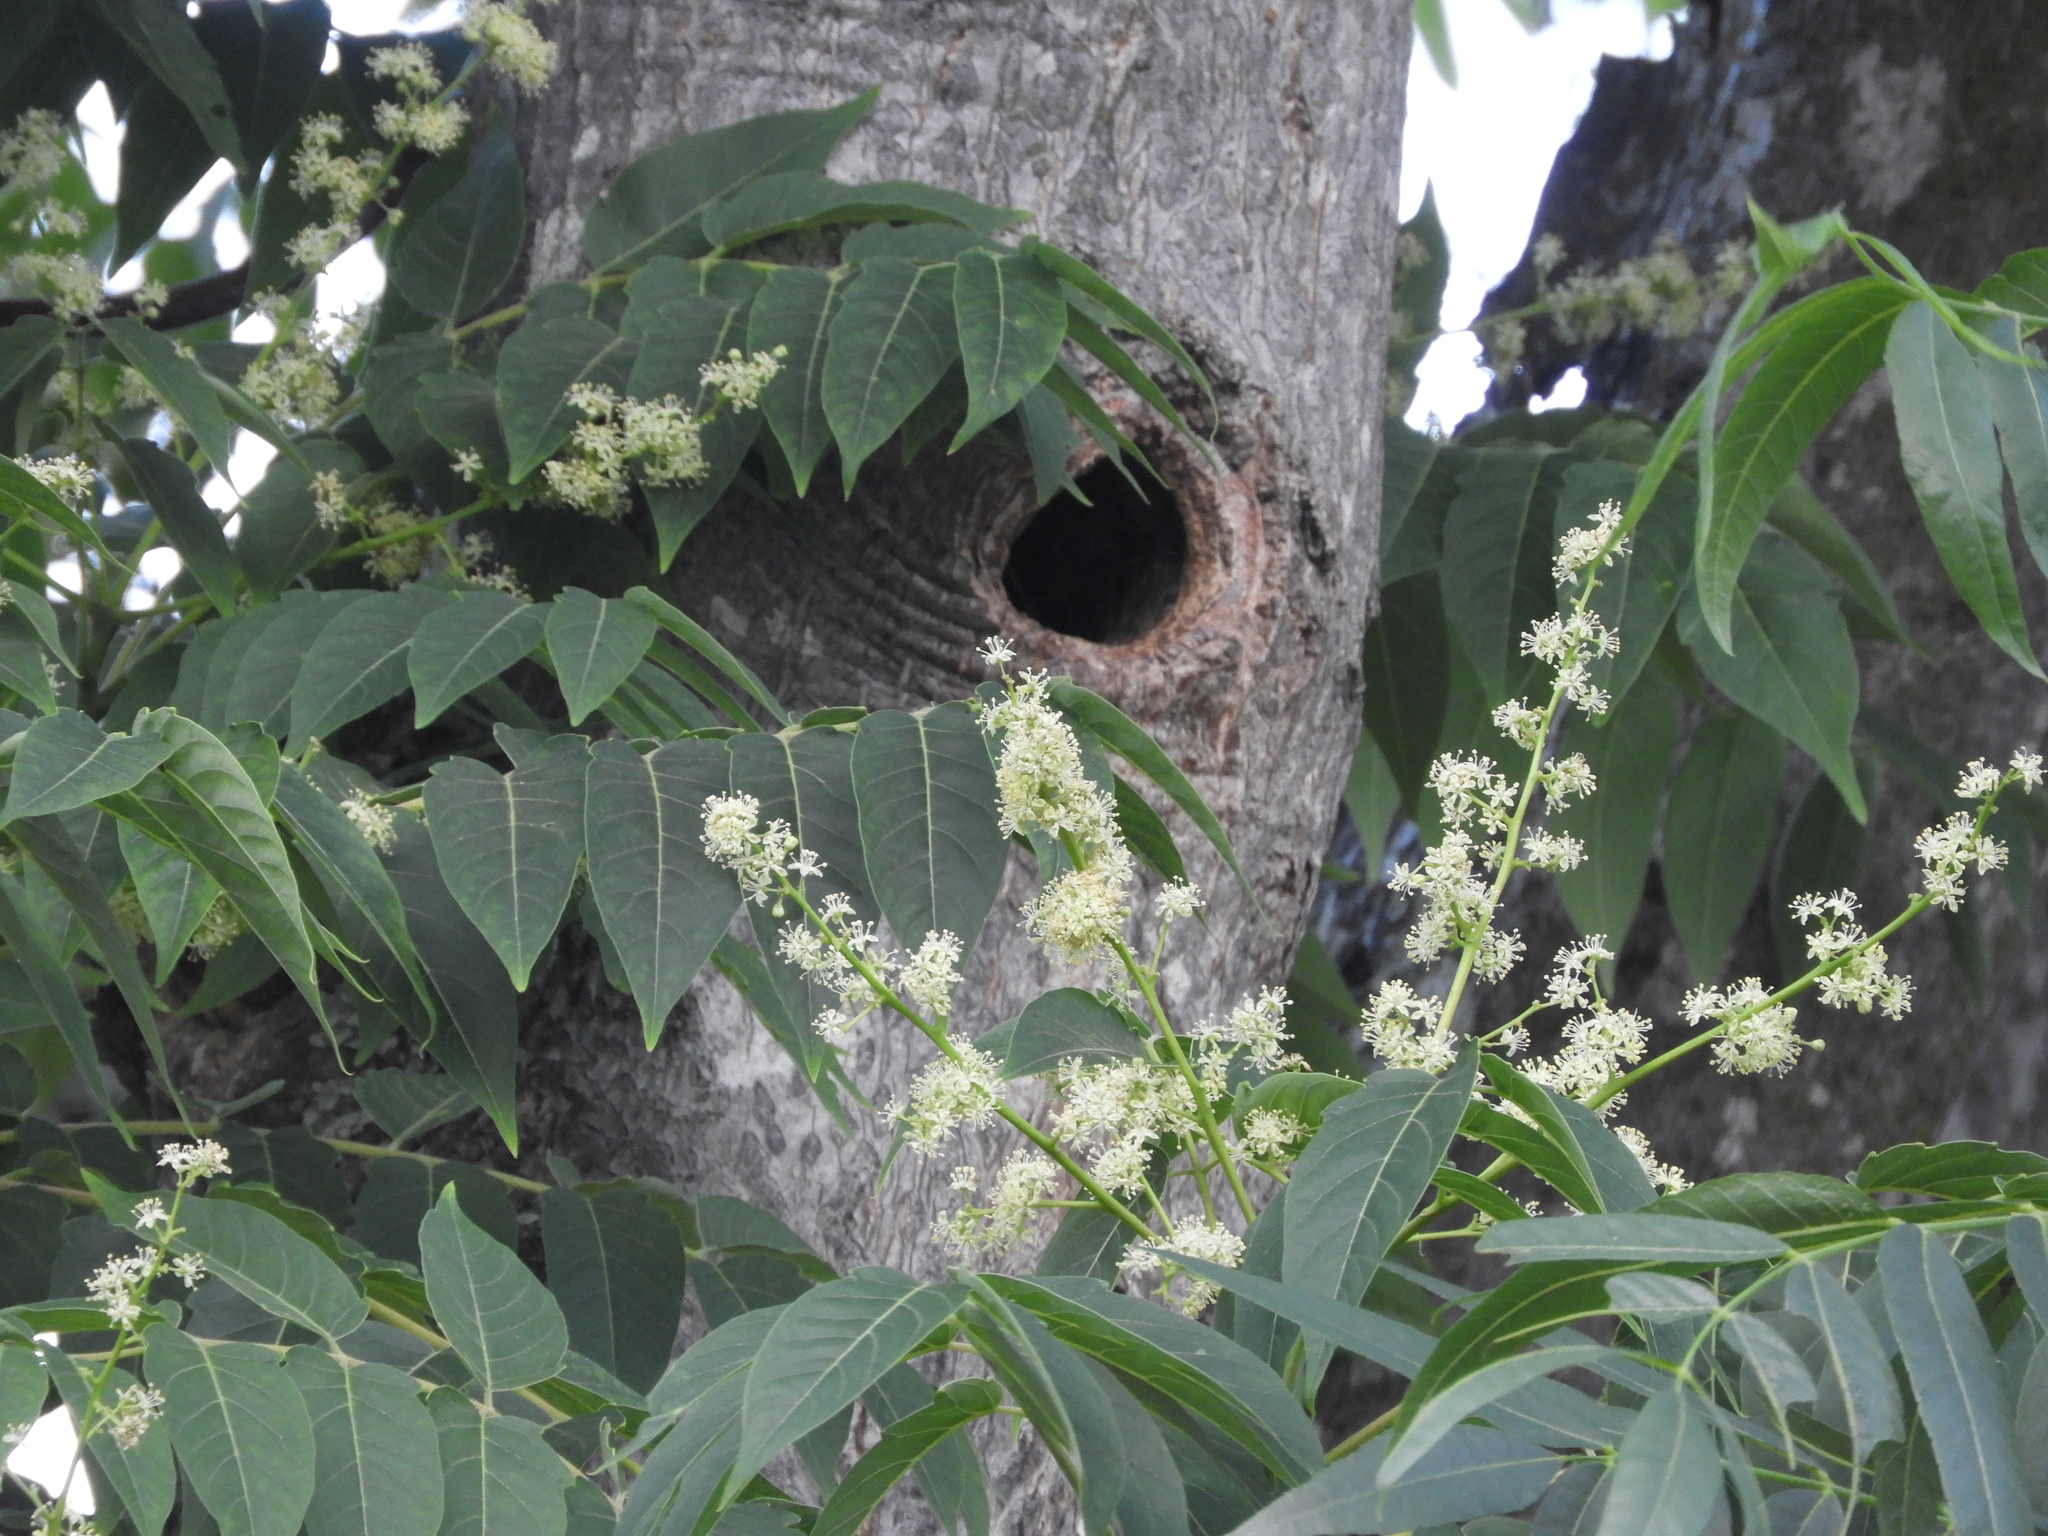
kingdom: Plantae
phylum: Tracheophyta
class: Magnoliopsida
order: Sapindales
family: Simaroubaceae
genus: Ailanthus
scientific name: Ailanthus altissima
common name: Tree-of-heaven
